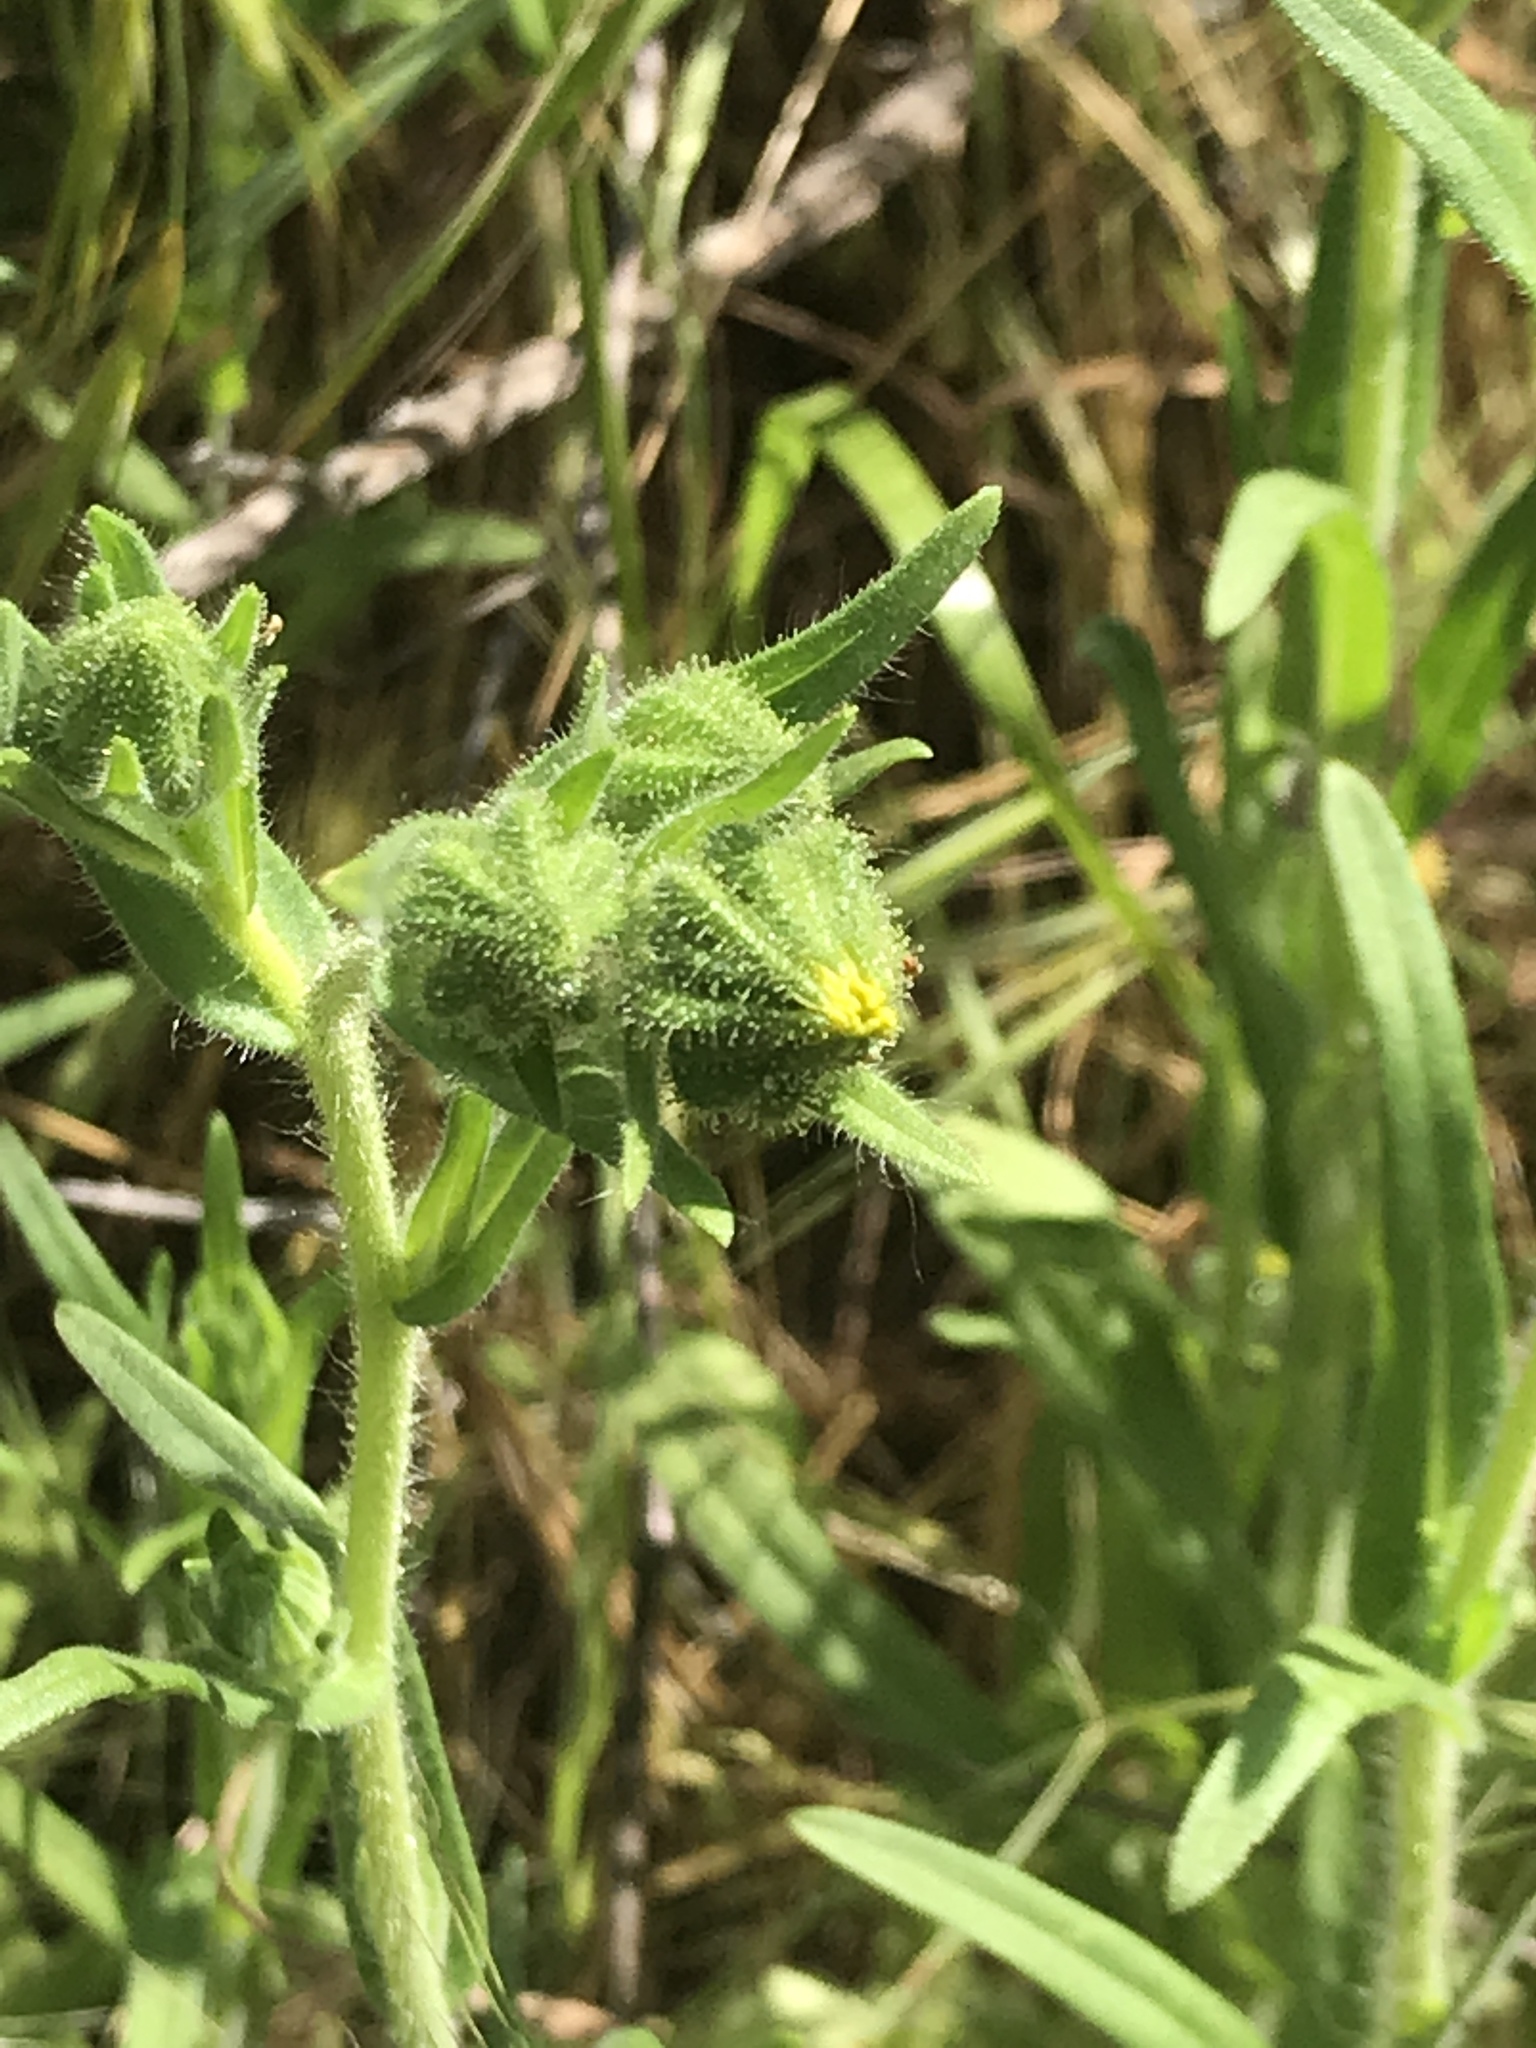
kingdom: Plantae
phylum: Tracheophyta
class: Magnoliopsida
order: Asterales
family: Asteraceae
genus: Madia
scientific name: Madia gracilis
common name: Grassy tarweed
